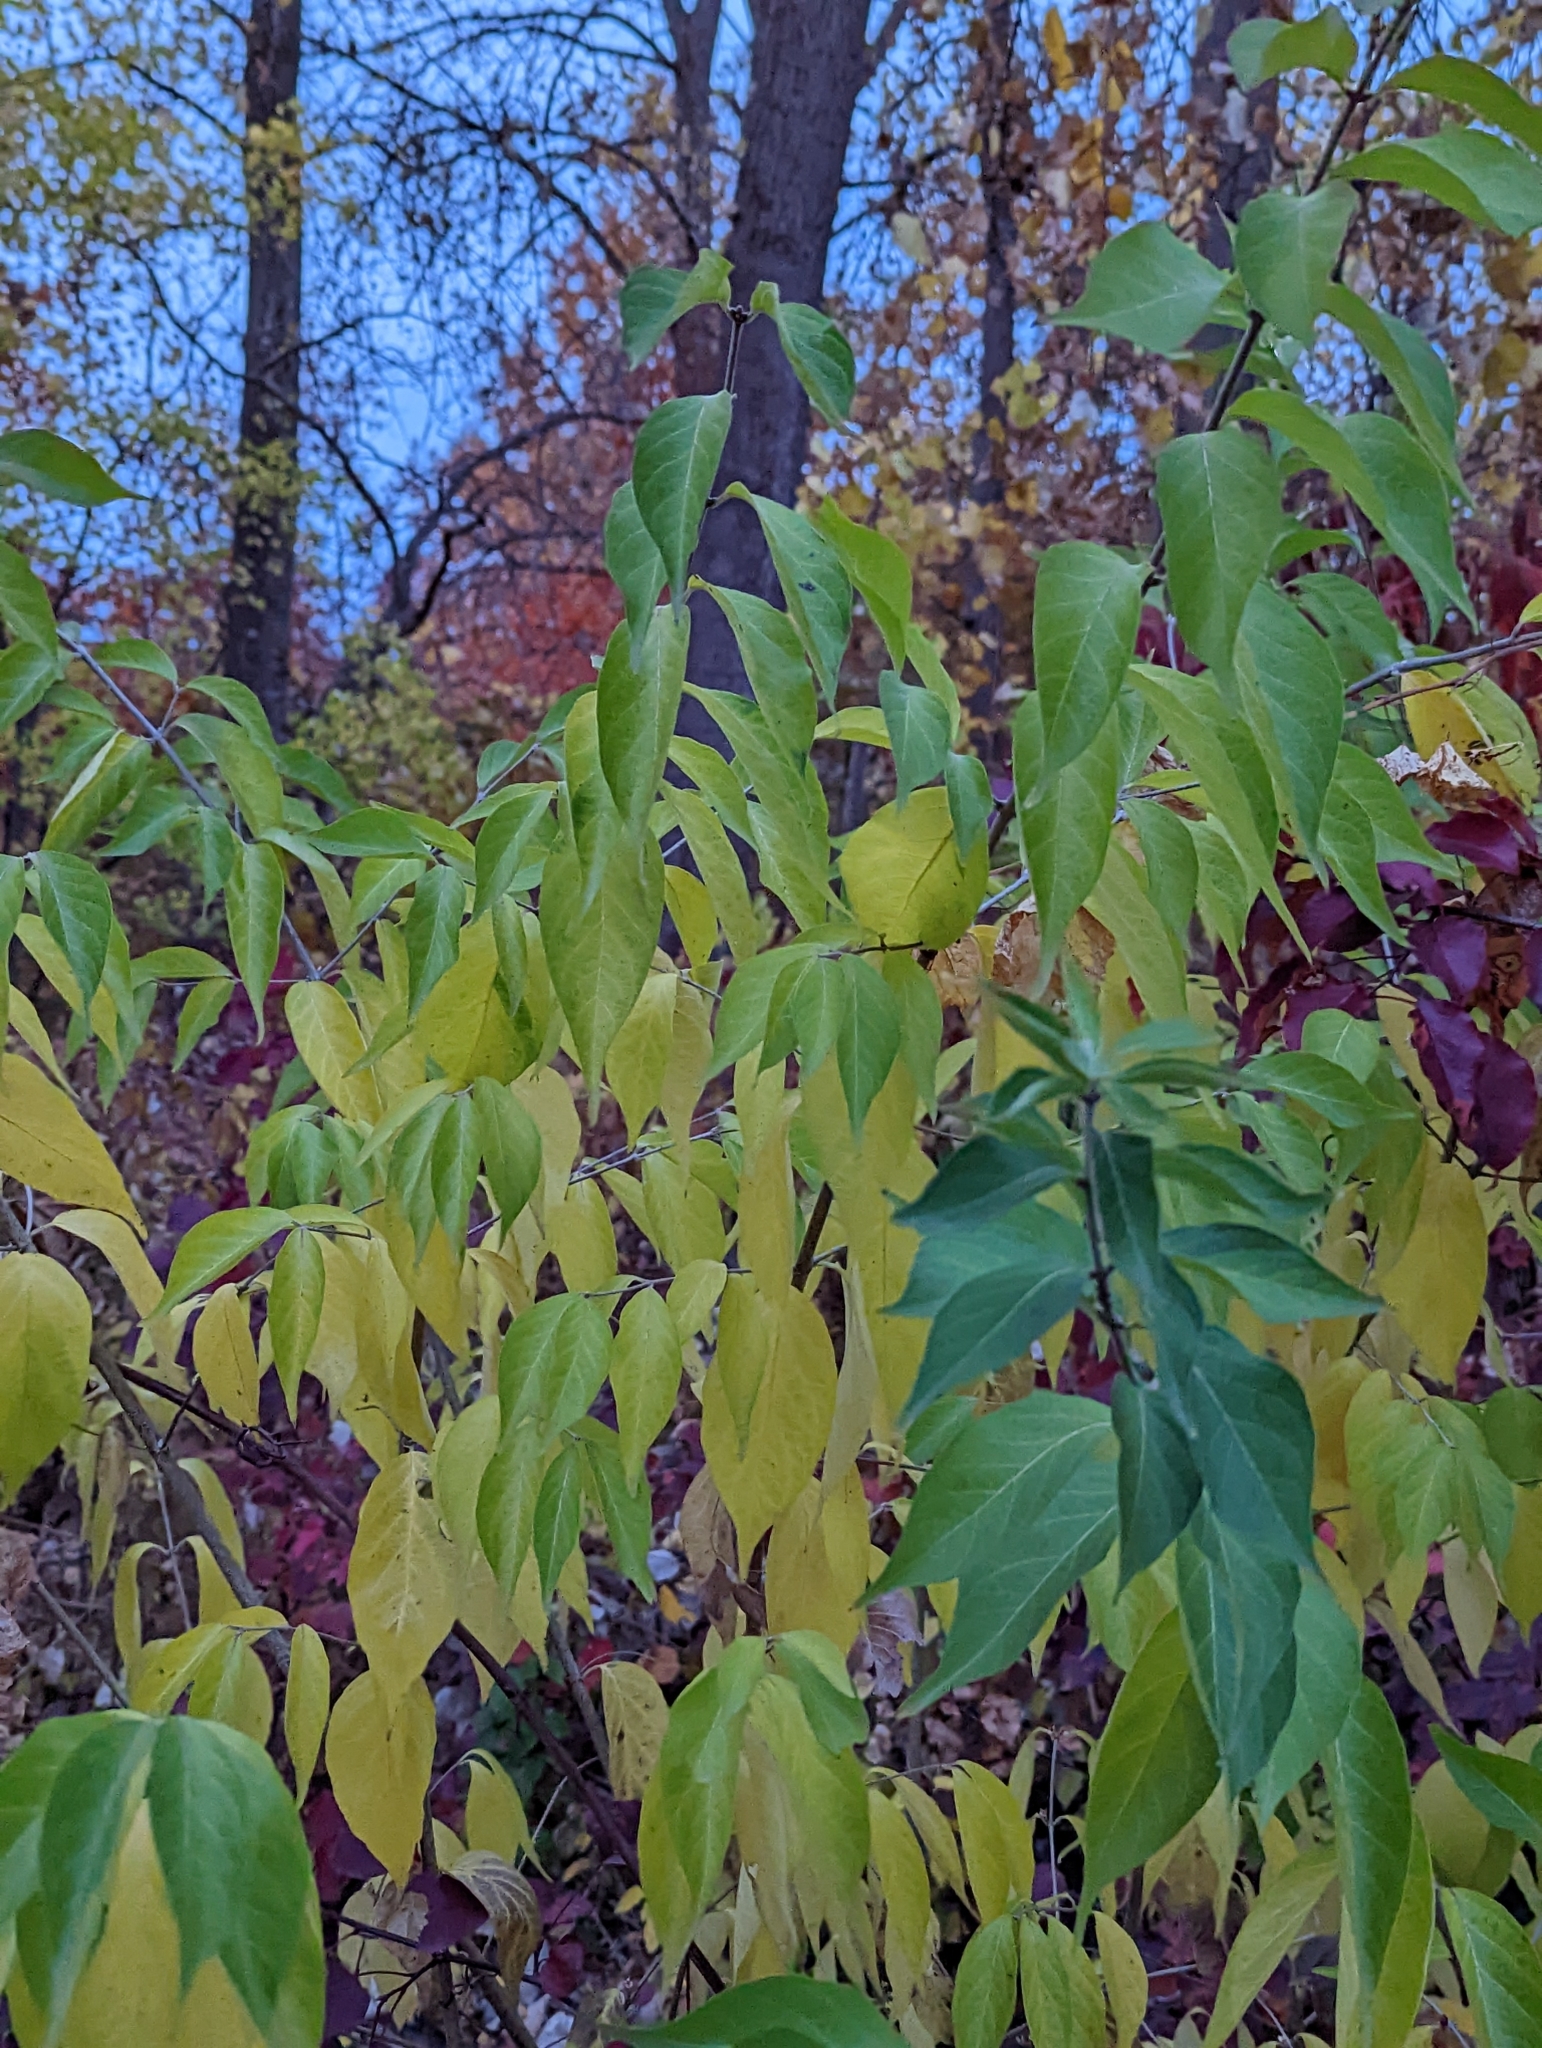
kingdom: Plantae
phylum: Tracheophyta
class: Magnoliopsida
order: Dipsacales
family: Caprifoliaceae
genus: Lonicera
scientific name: Lonicera maackii
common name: Amur honeysuckle
